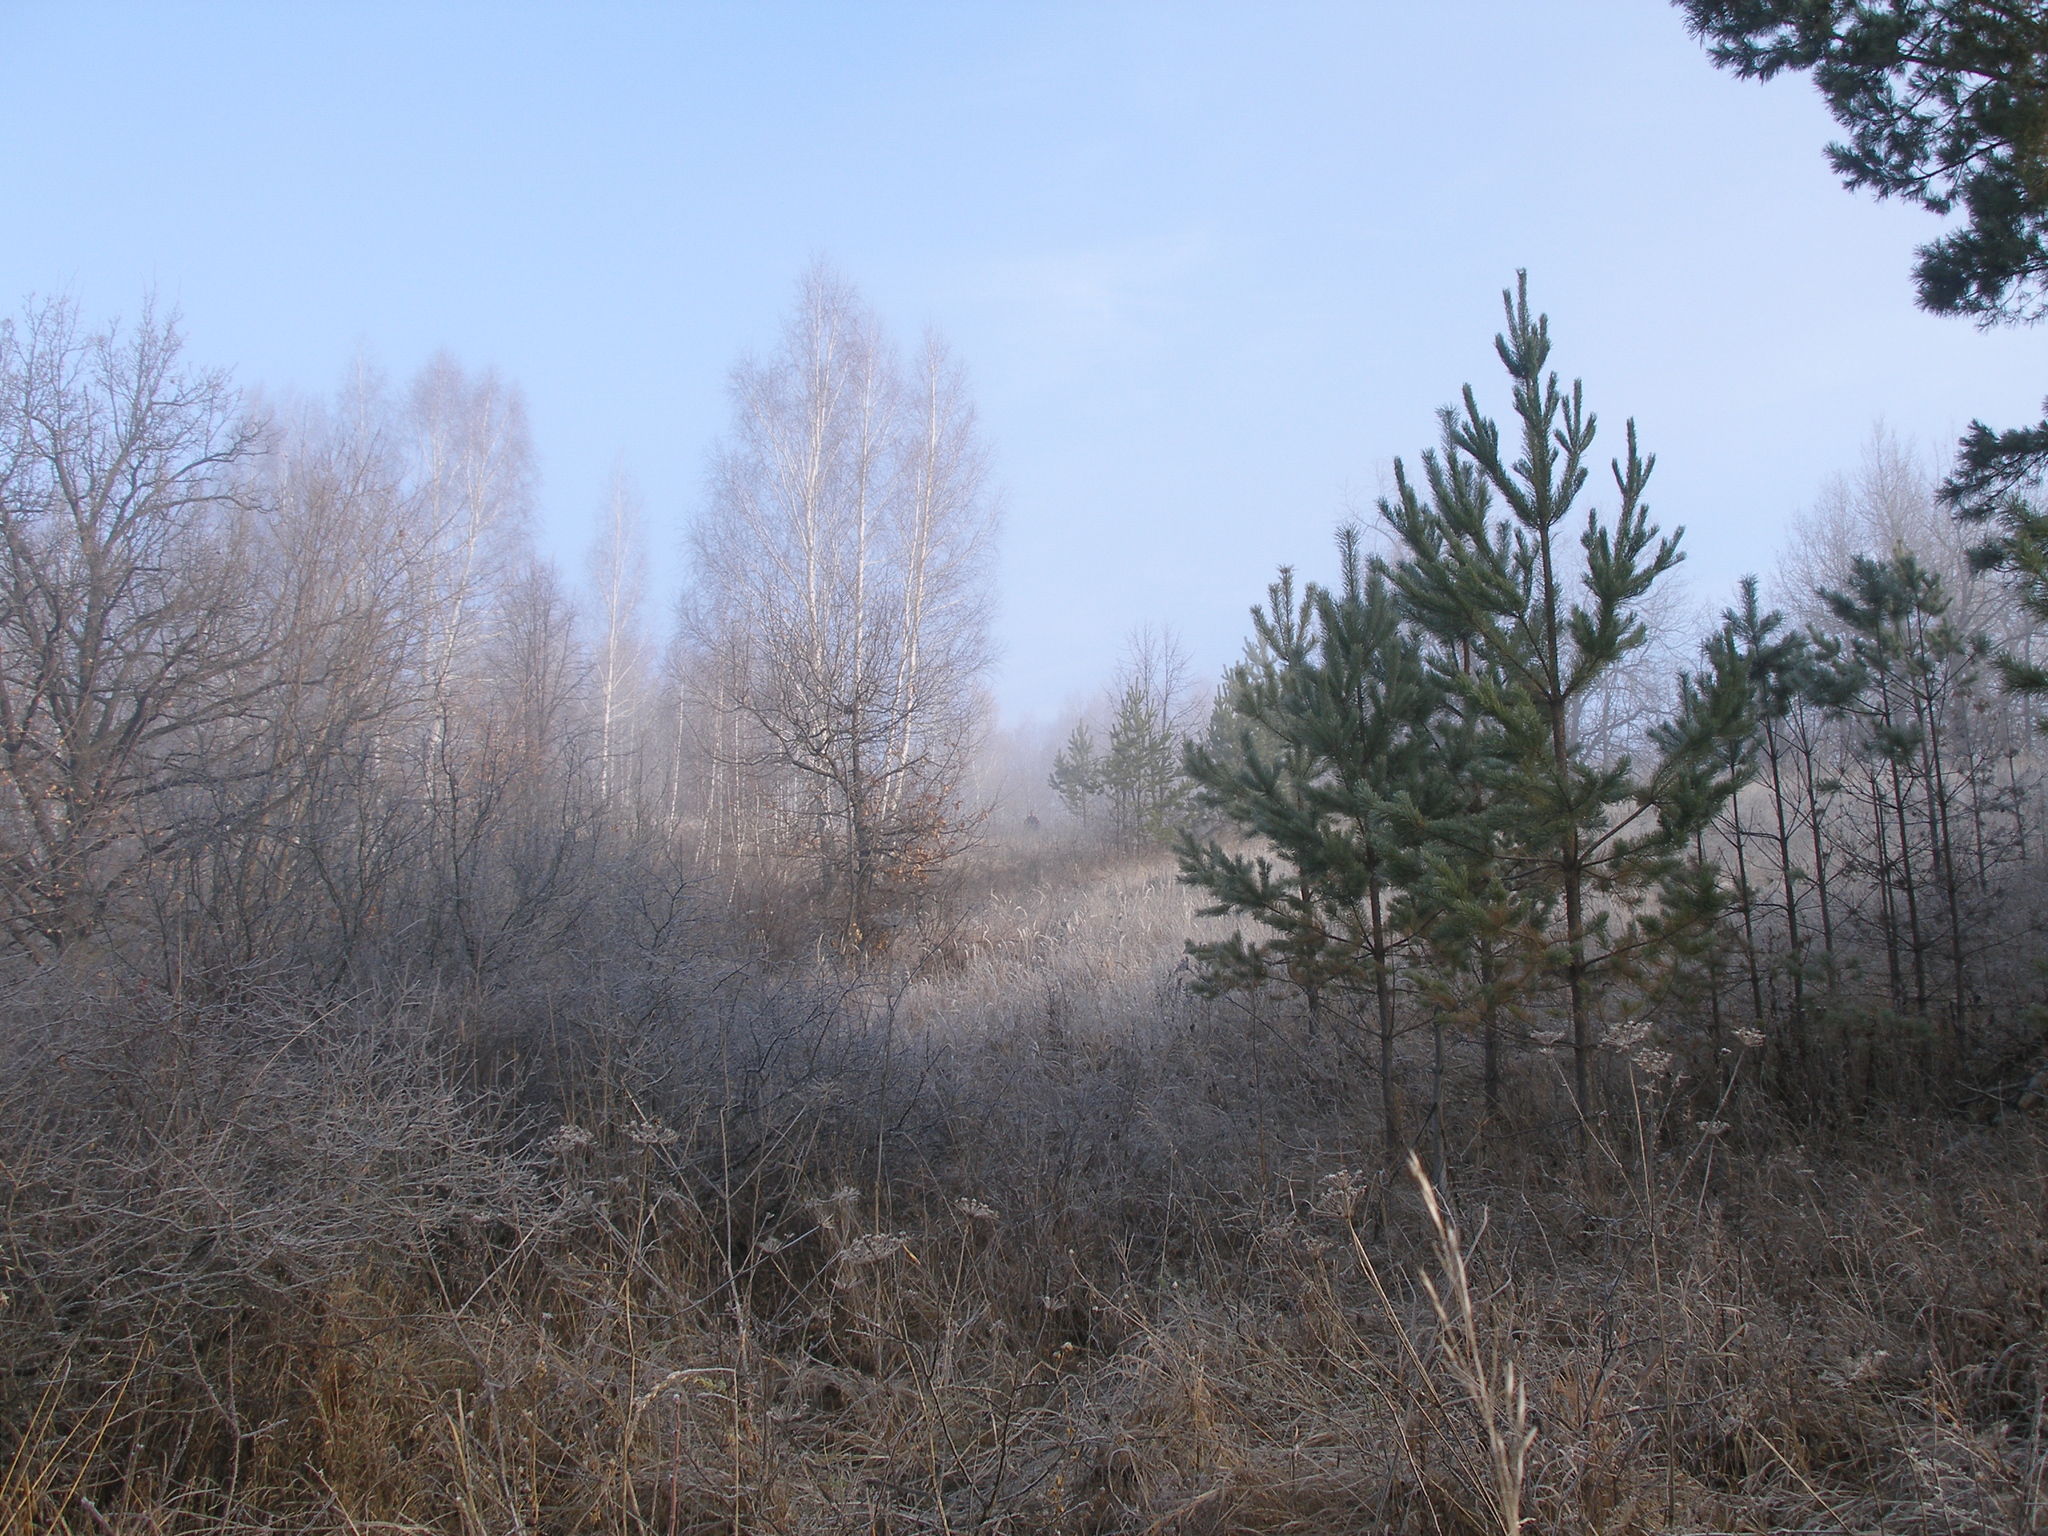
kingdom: Plantae
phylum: Tracheophyta
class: Pinopsida
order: Pinales
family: Pinaceae
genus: Pinus
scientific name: Pinus sylvestris
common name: Scots pine
